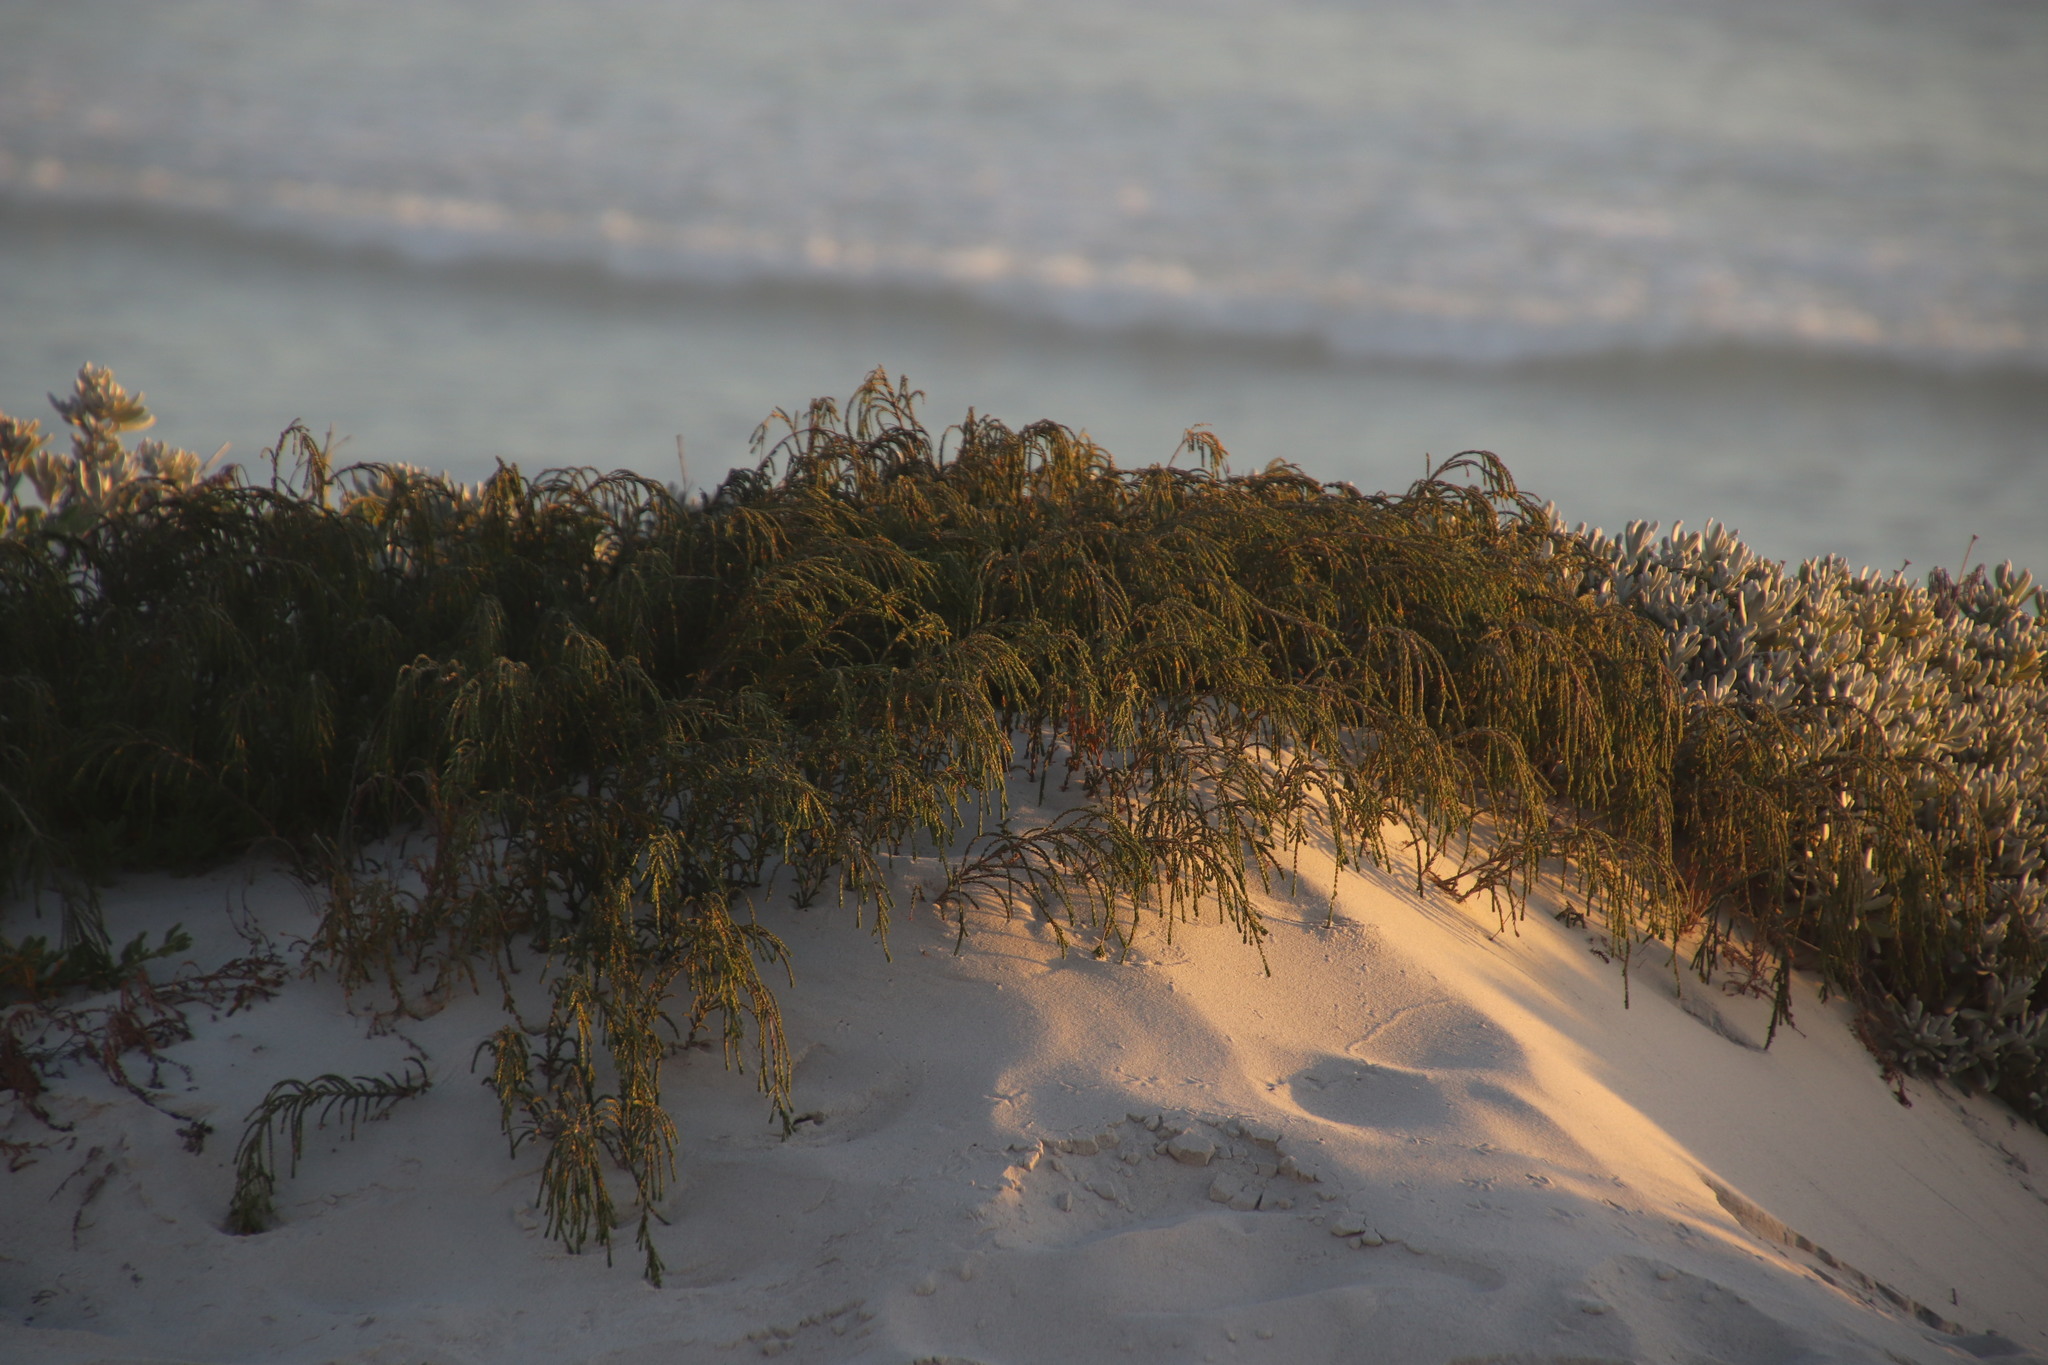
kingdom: Plantae
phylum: Tracheophyta
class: Magnoliopsida
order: Malvales
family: Thymelaeaceae
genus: Passerina
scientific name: Passerina ericoides
